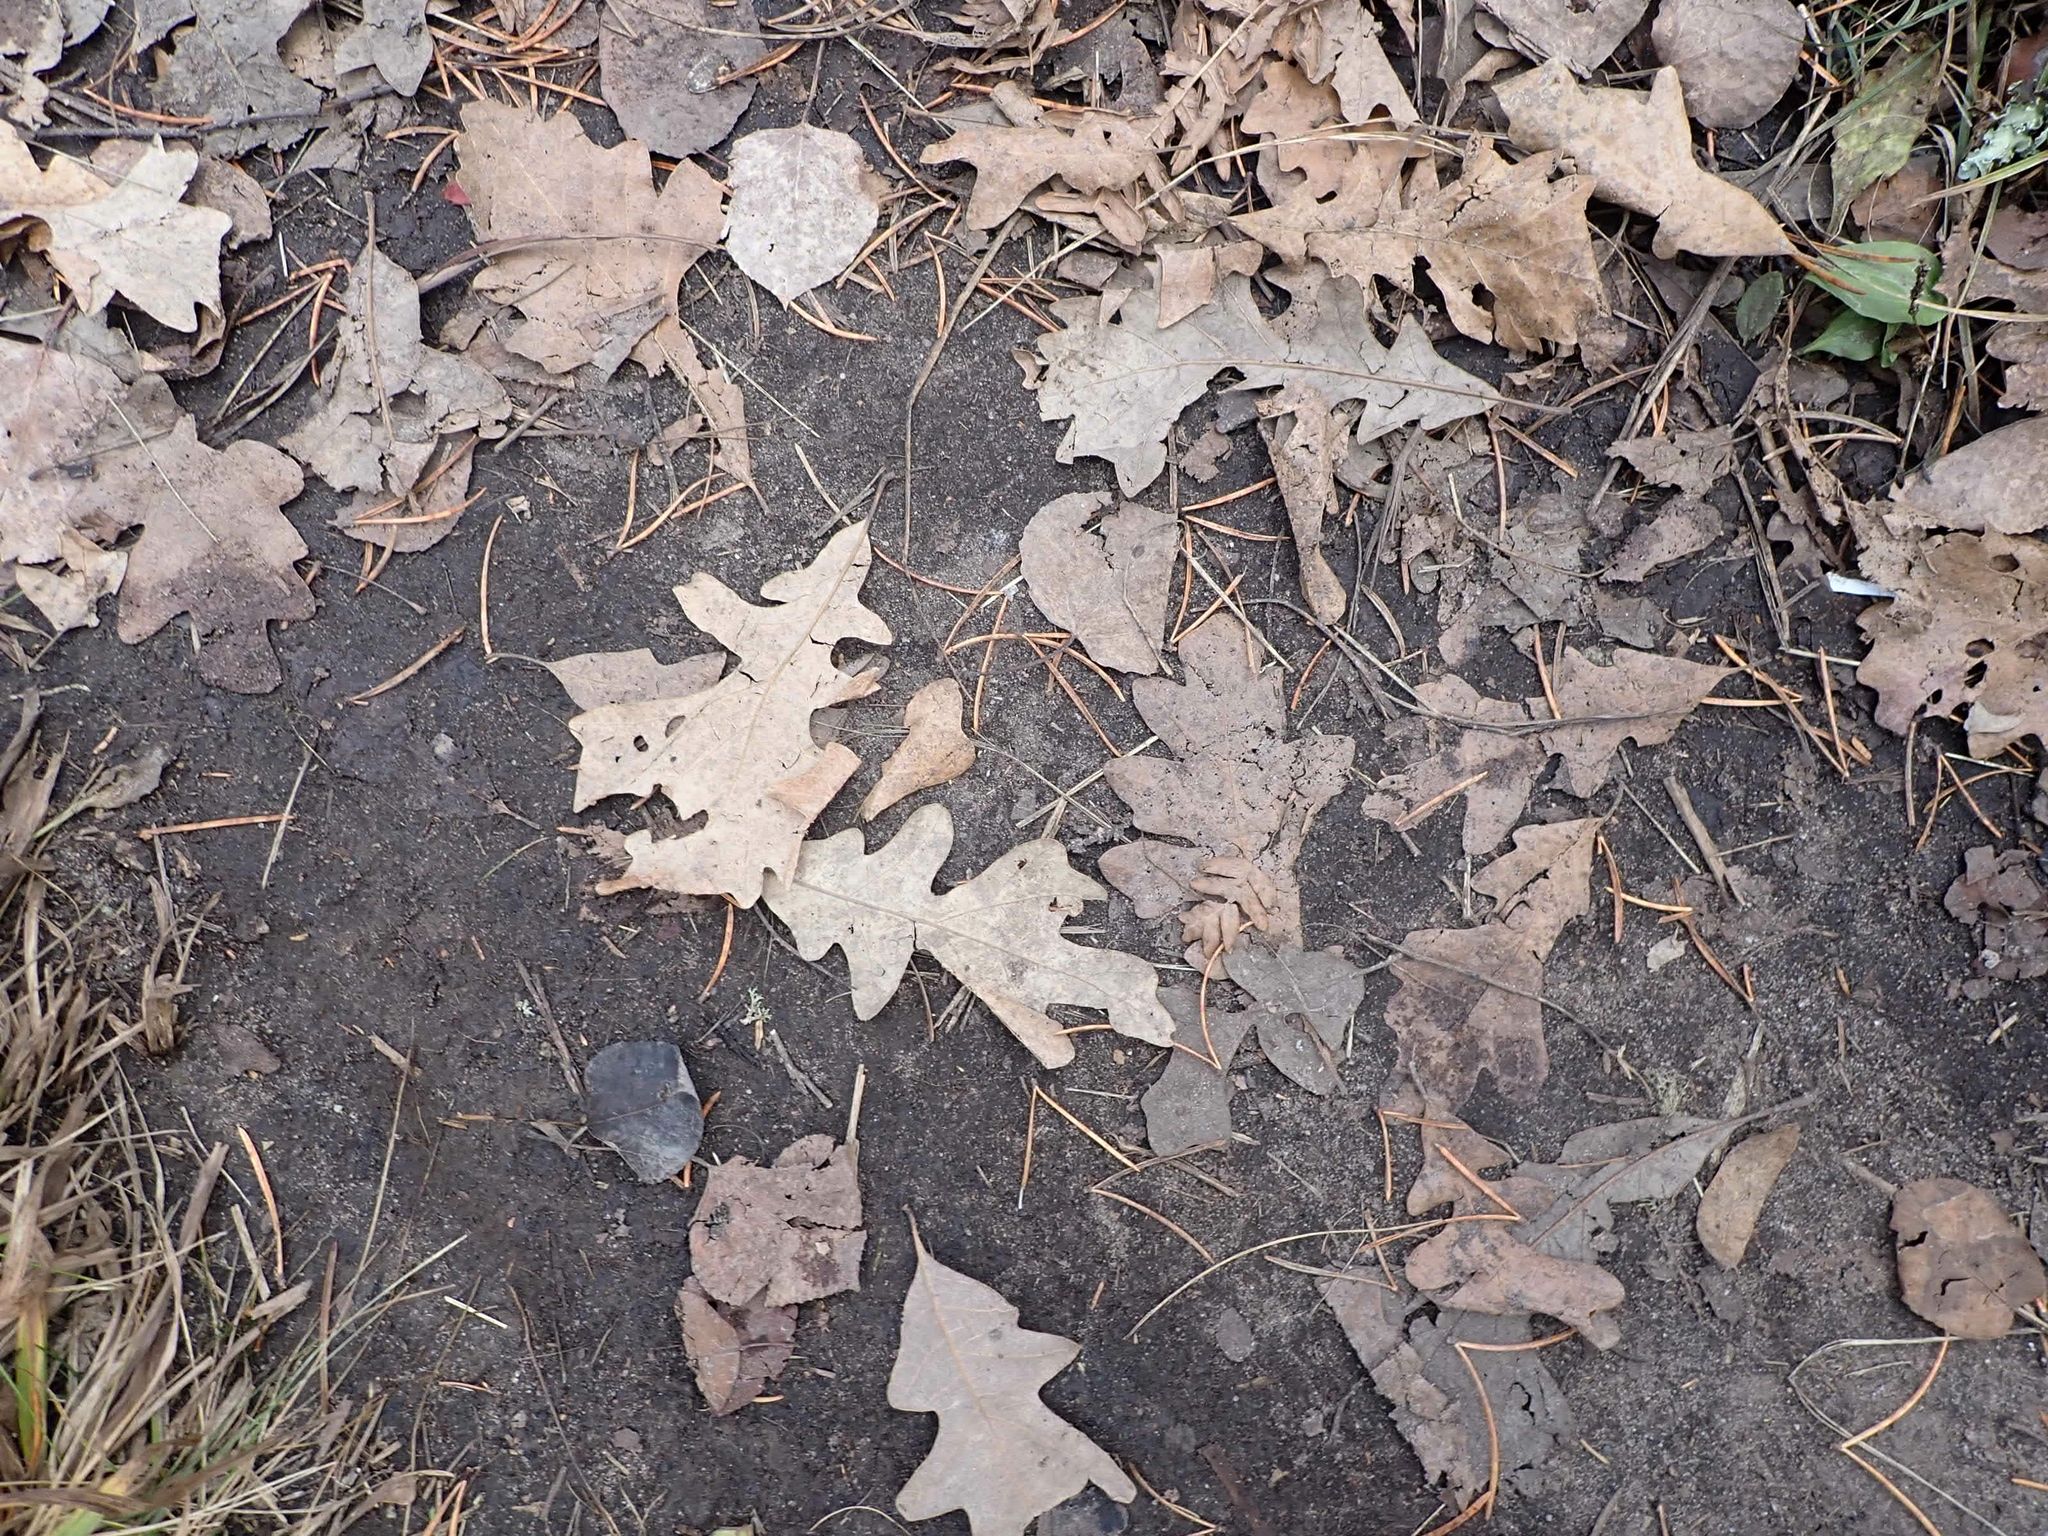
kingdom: Plantae
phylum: Tracheophyta
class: Magnoliopsida
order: Fagales
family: Fagaceae
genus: Quercus
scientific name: Quercus macrocarpa
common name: Bur oak
